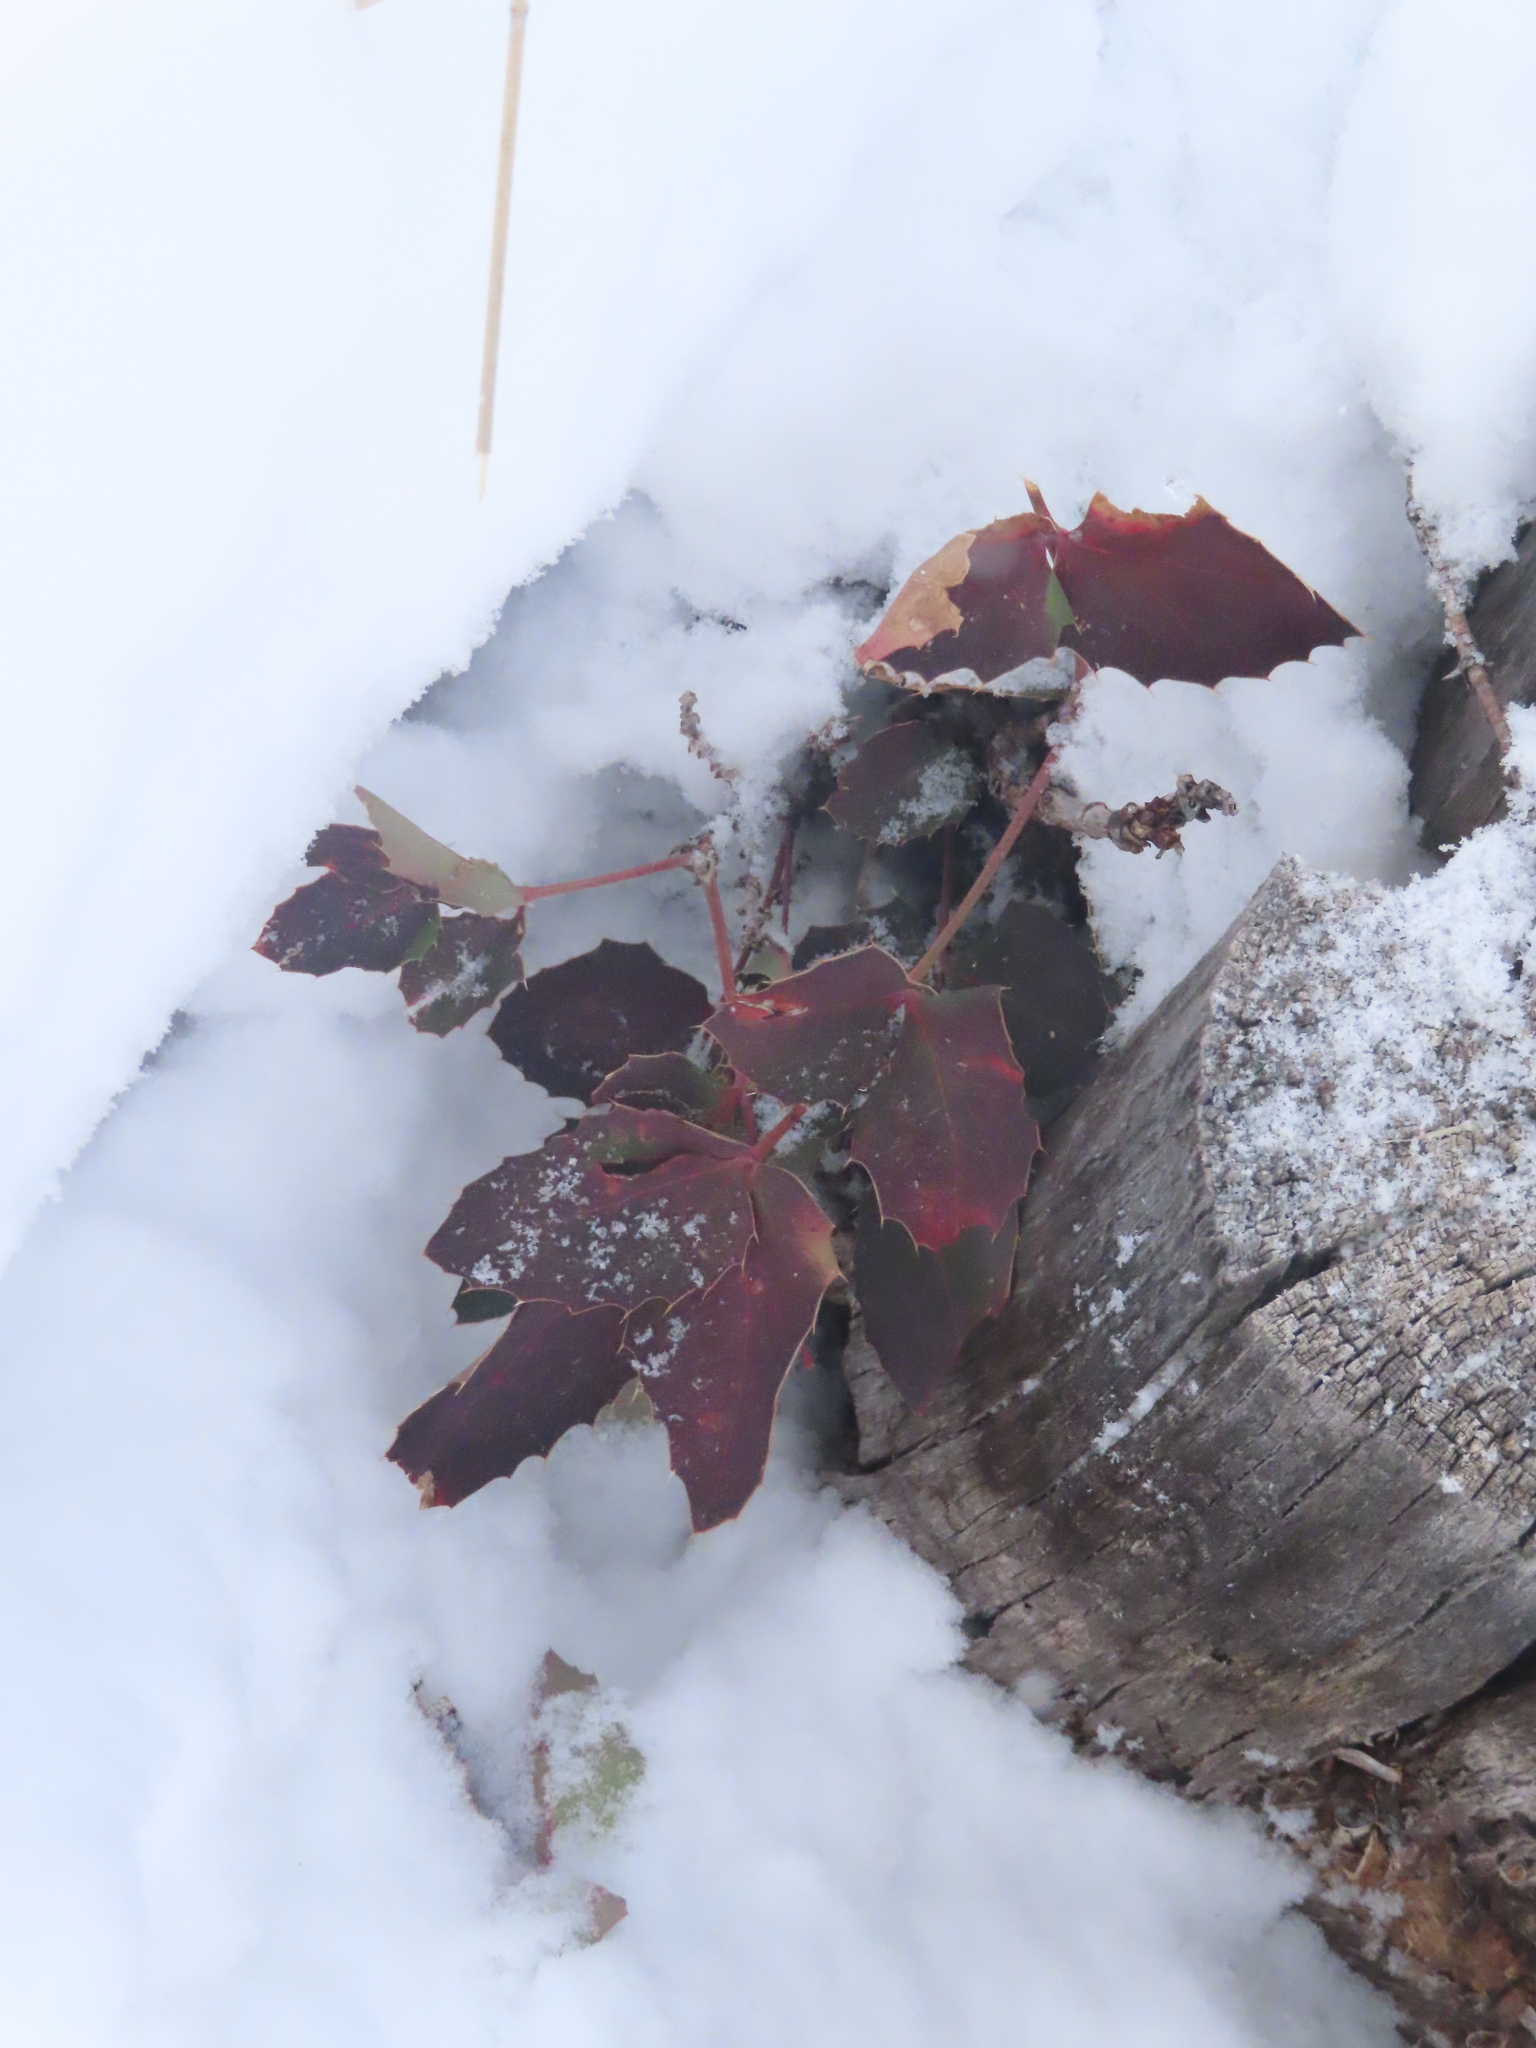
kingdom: Plantae
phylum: Tracheophyta
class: Magnoliopsida
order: Ranunculales
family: Berberidaceae
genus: Mahonia
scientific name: Mahonia repens
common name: Creeping oregon-grape
